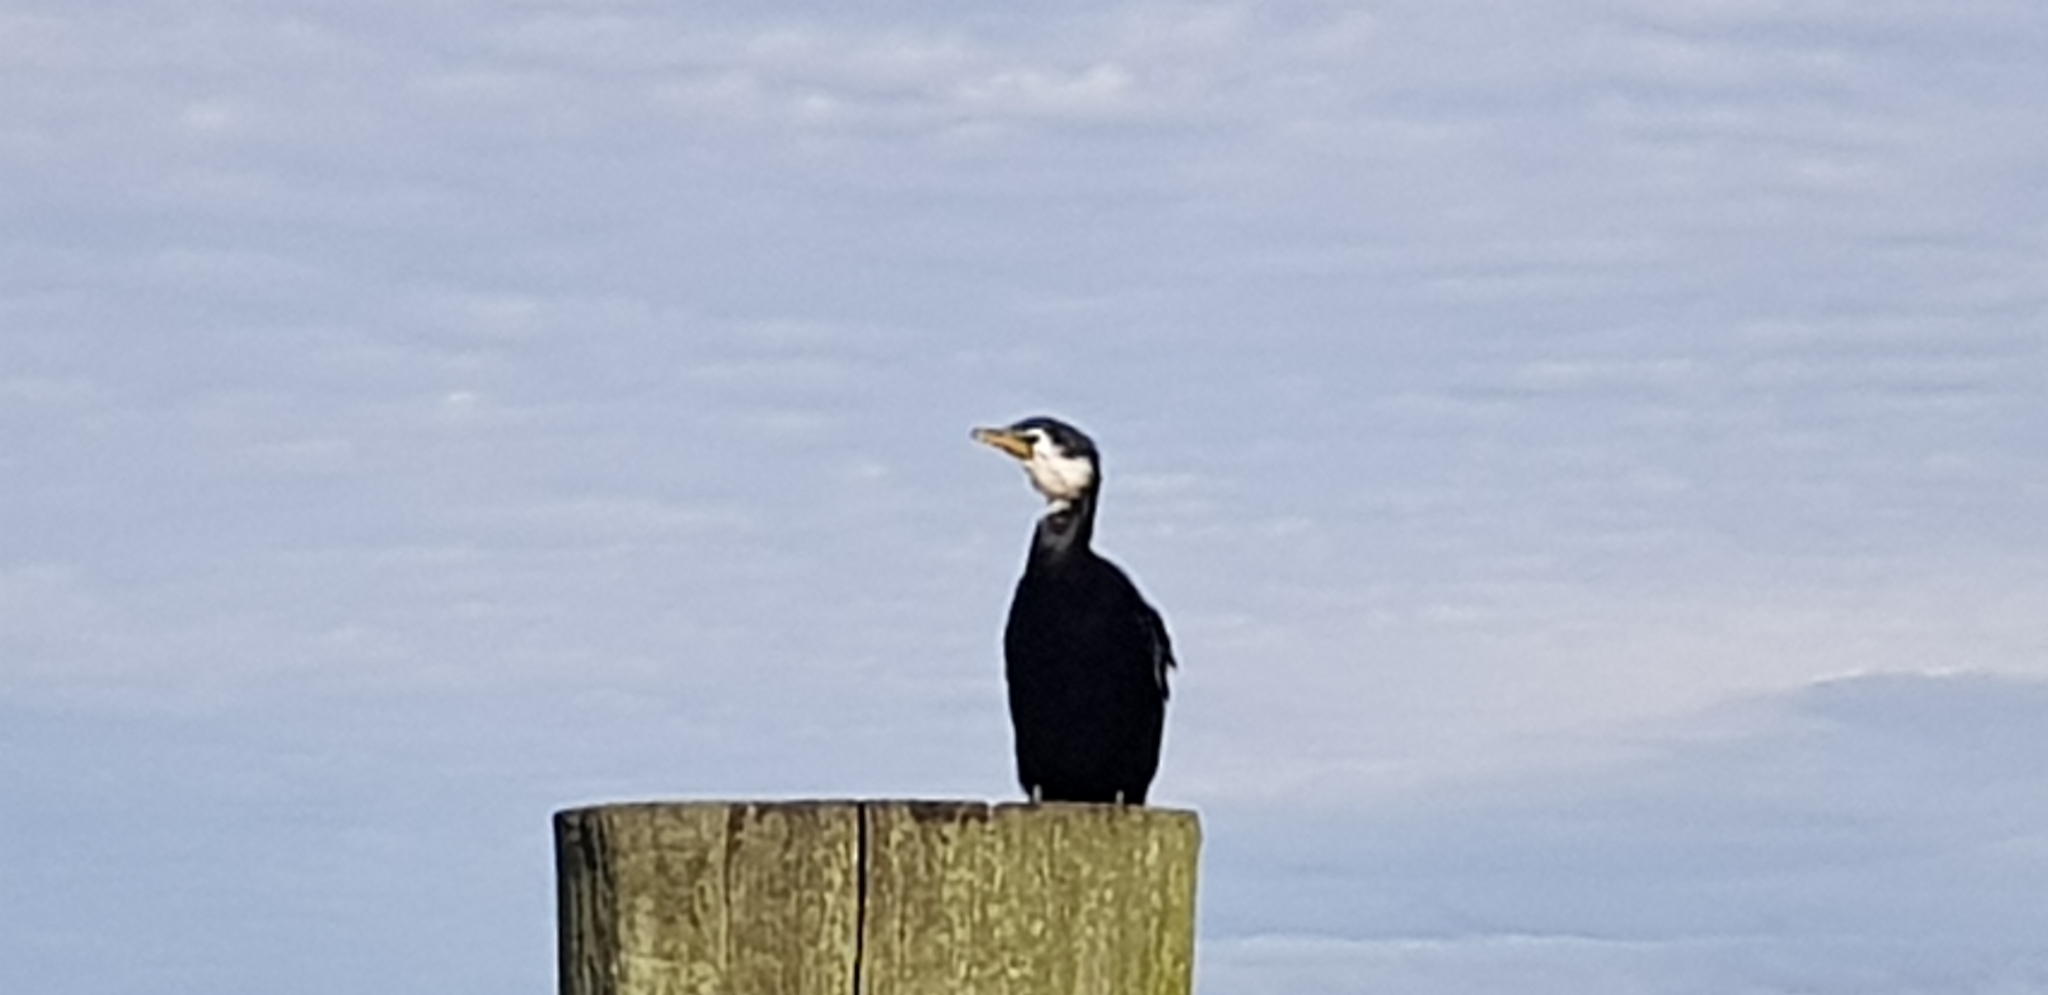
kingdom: Animalia
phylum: Chordata
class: Aves
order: Suliformes
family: Phalacrocoracidae
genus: Microcarbo
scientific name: Microcarbo melanoleucos
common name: Little pied cormorant
